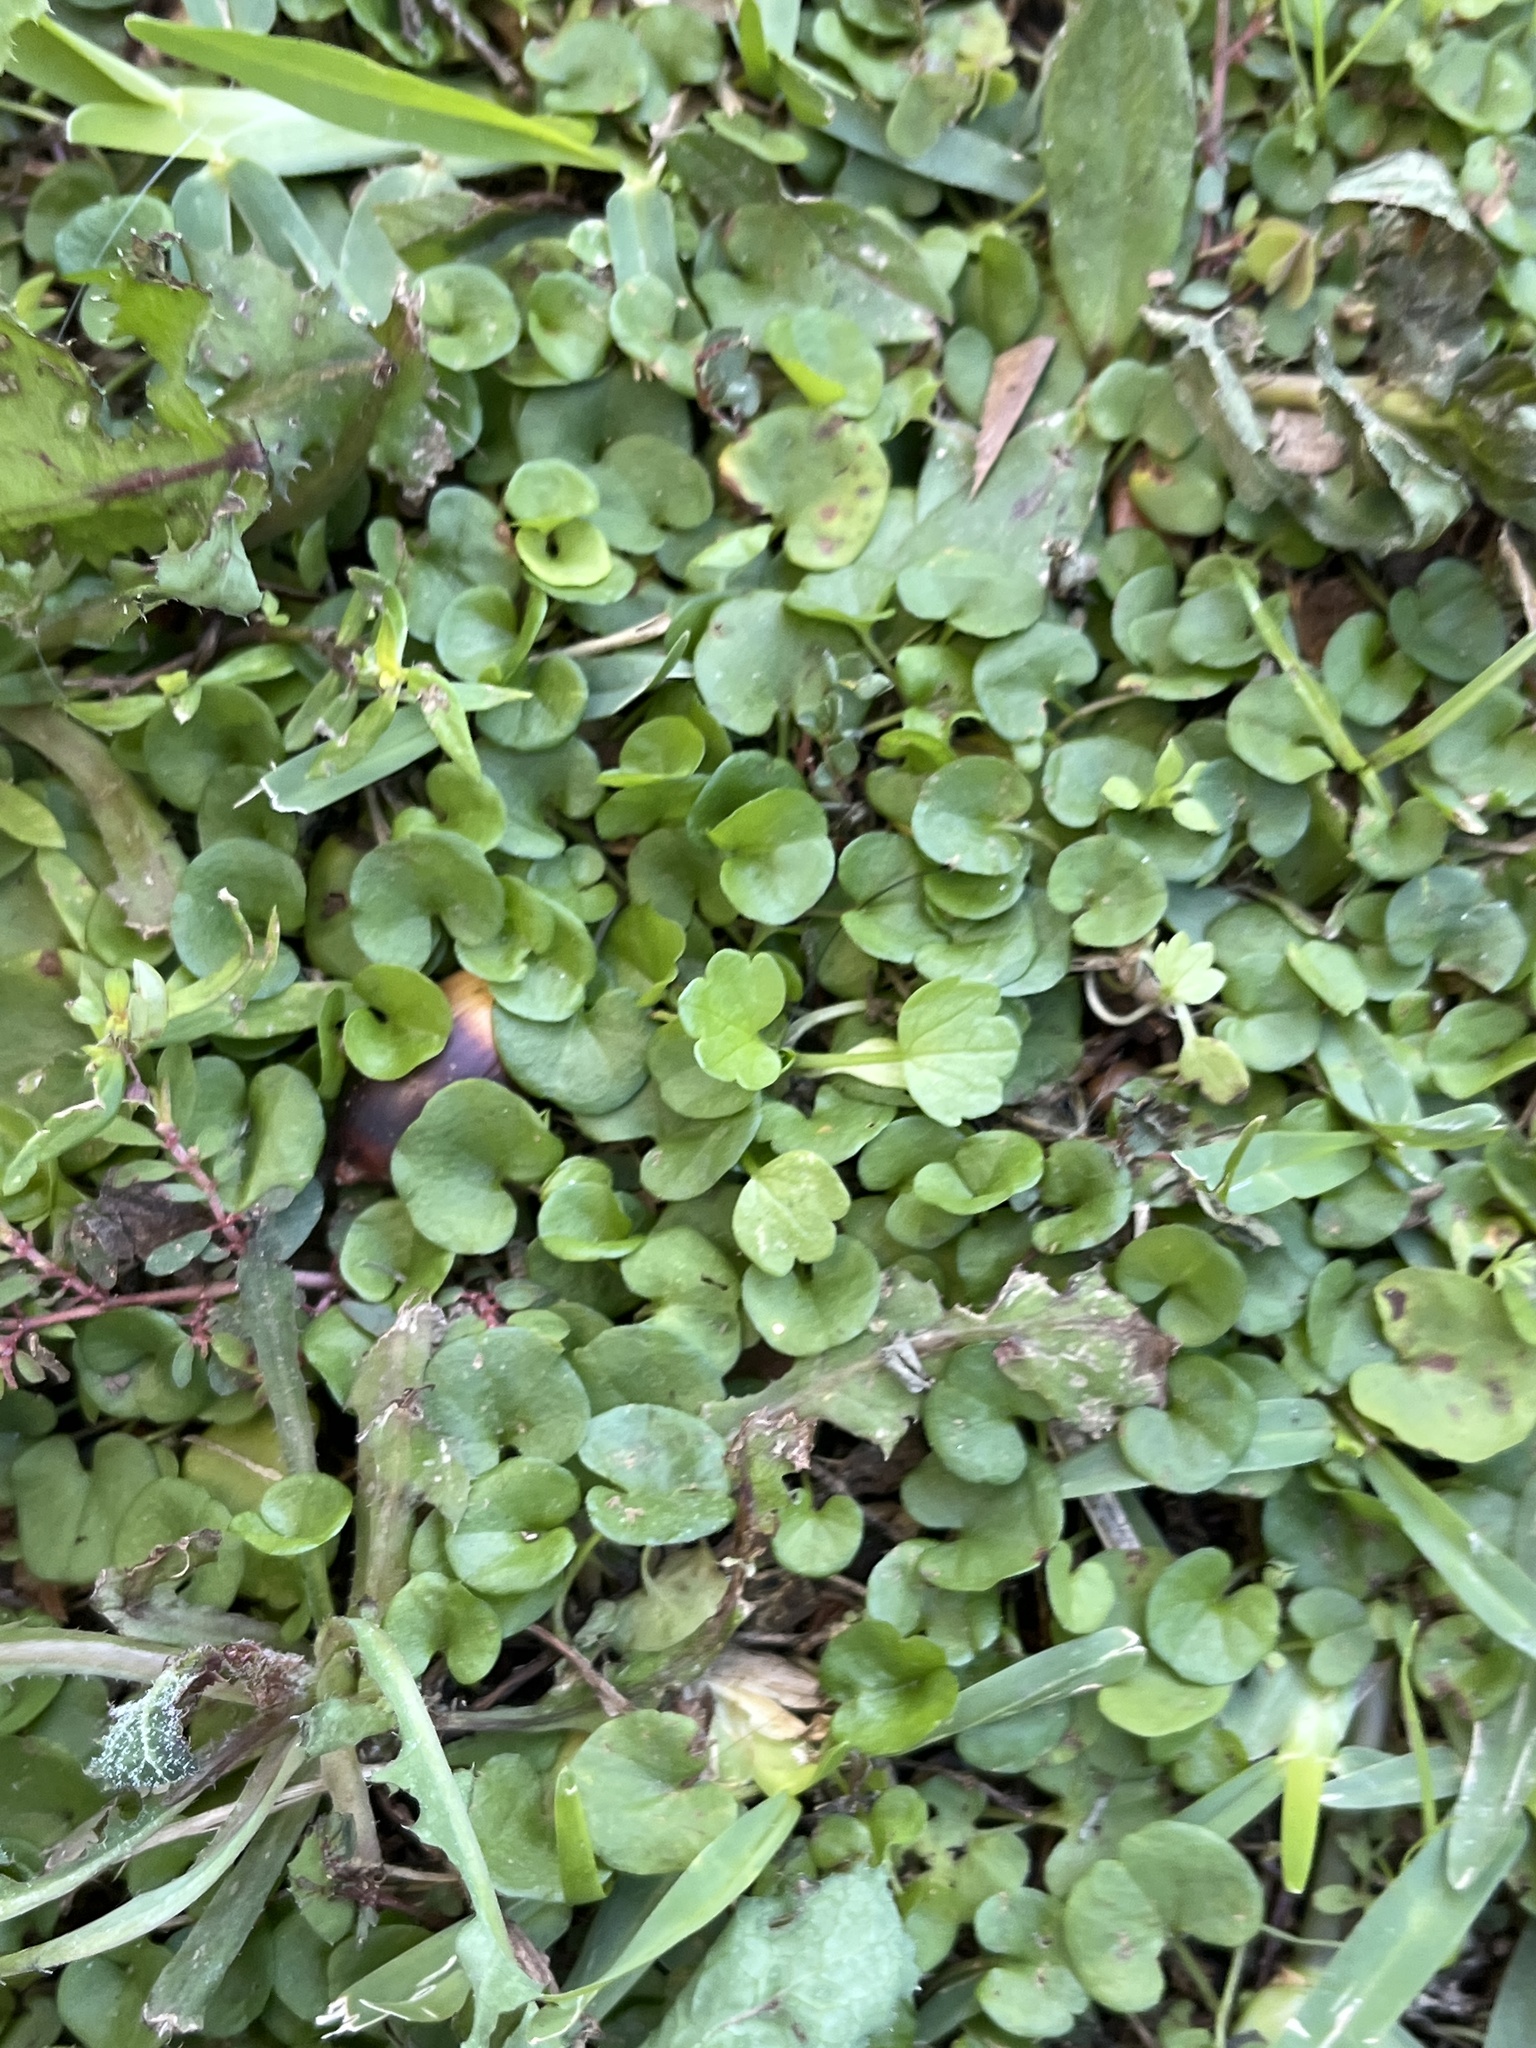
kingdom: Plantae
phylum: Tracheophyta
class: Magnoliopsida
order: Solanales
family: Convolvulaceae
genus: Dichondra
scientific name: Dichondra carolinensis
